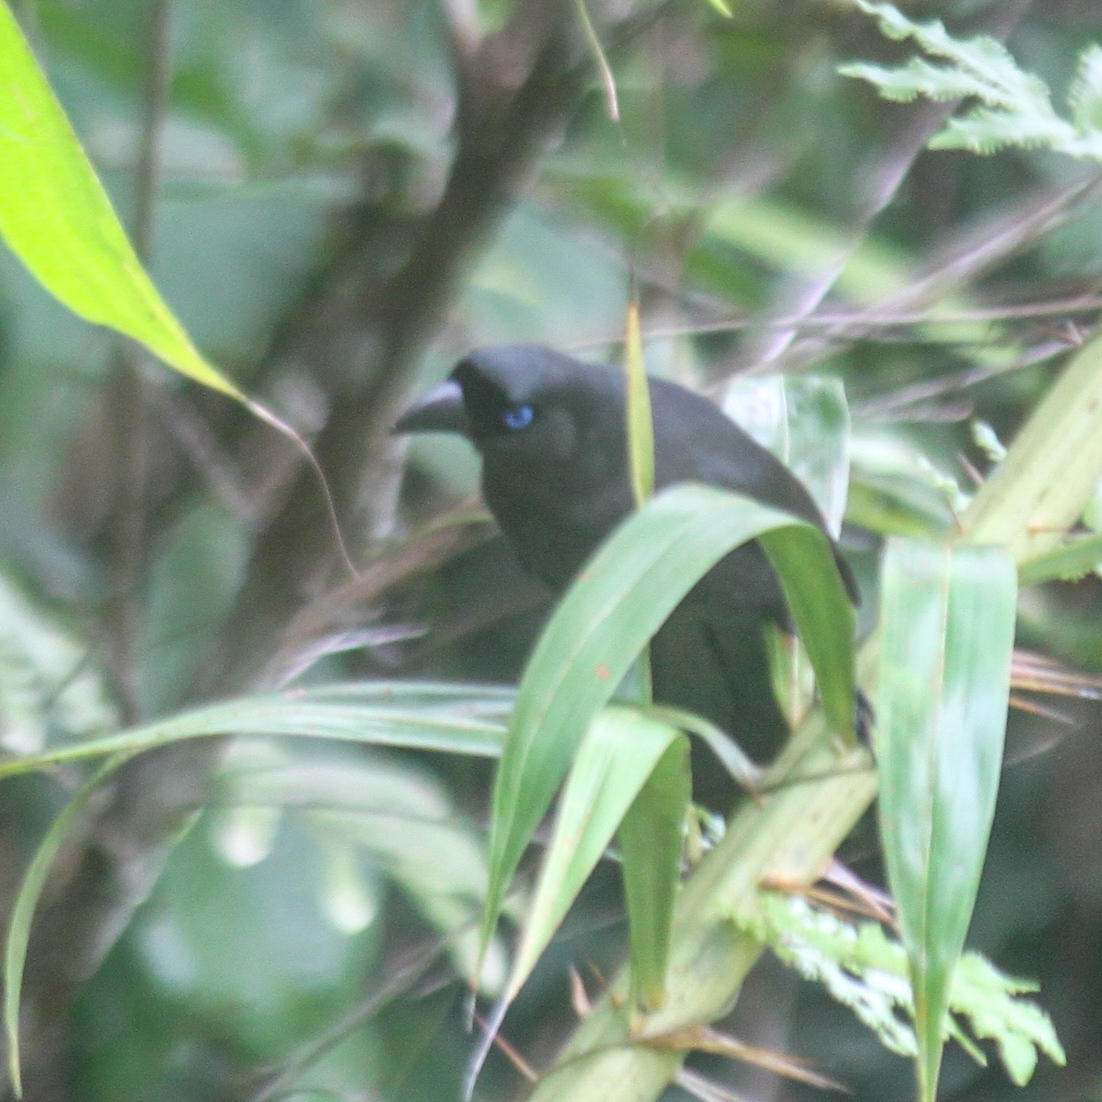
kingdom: Animalia
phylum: Chordata
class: Aves
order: Passeriformes
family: Corvidae
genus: Crypsirina
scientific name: Crypsirina temia
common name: Racket-tailed treepie
